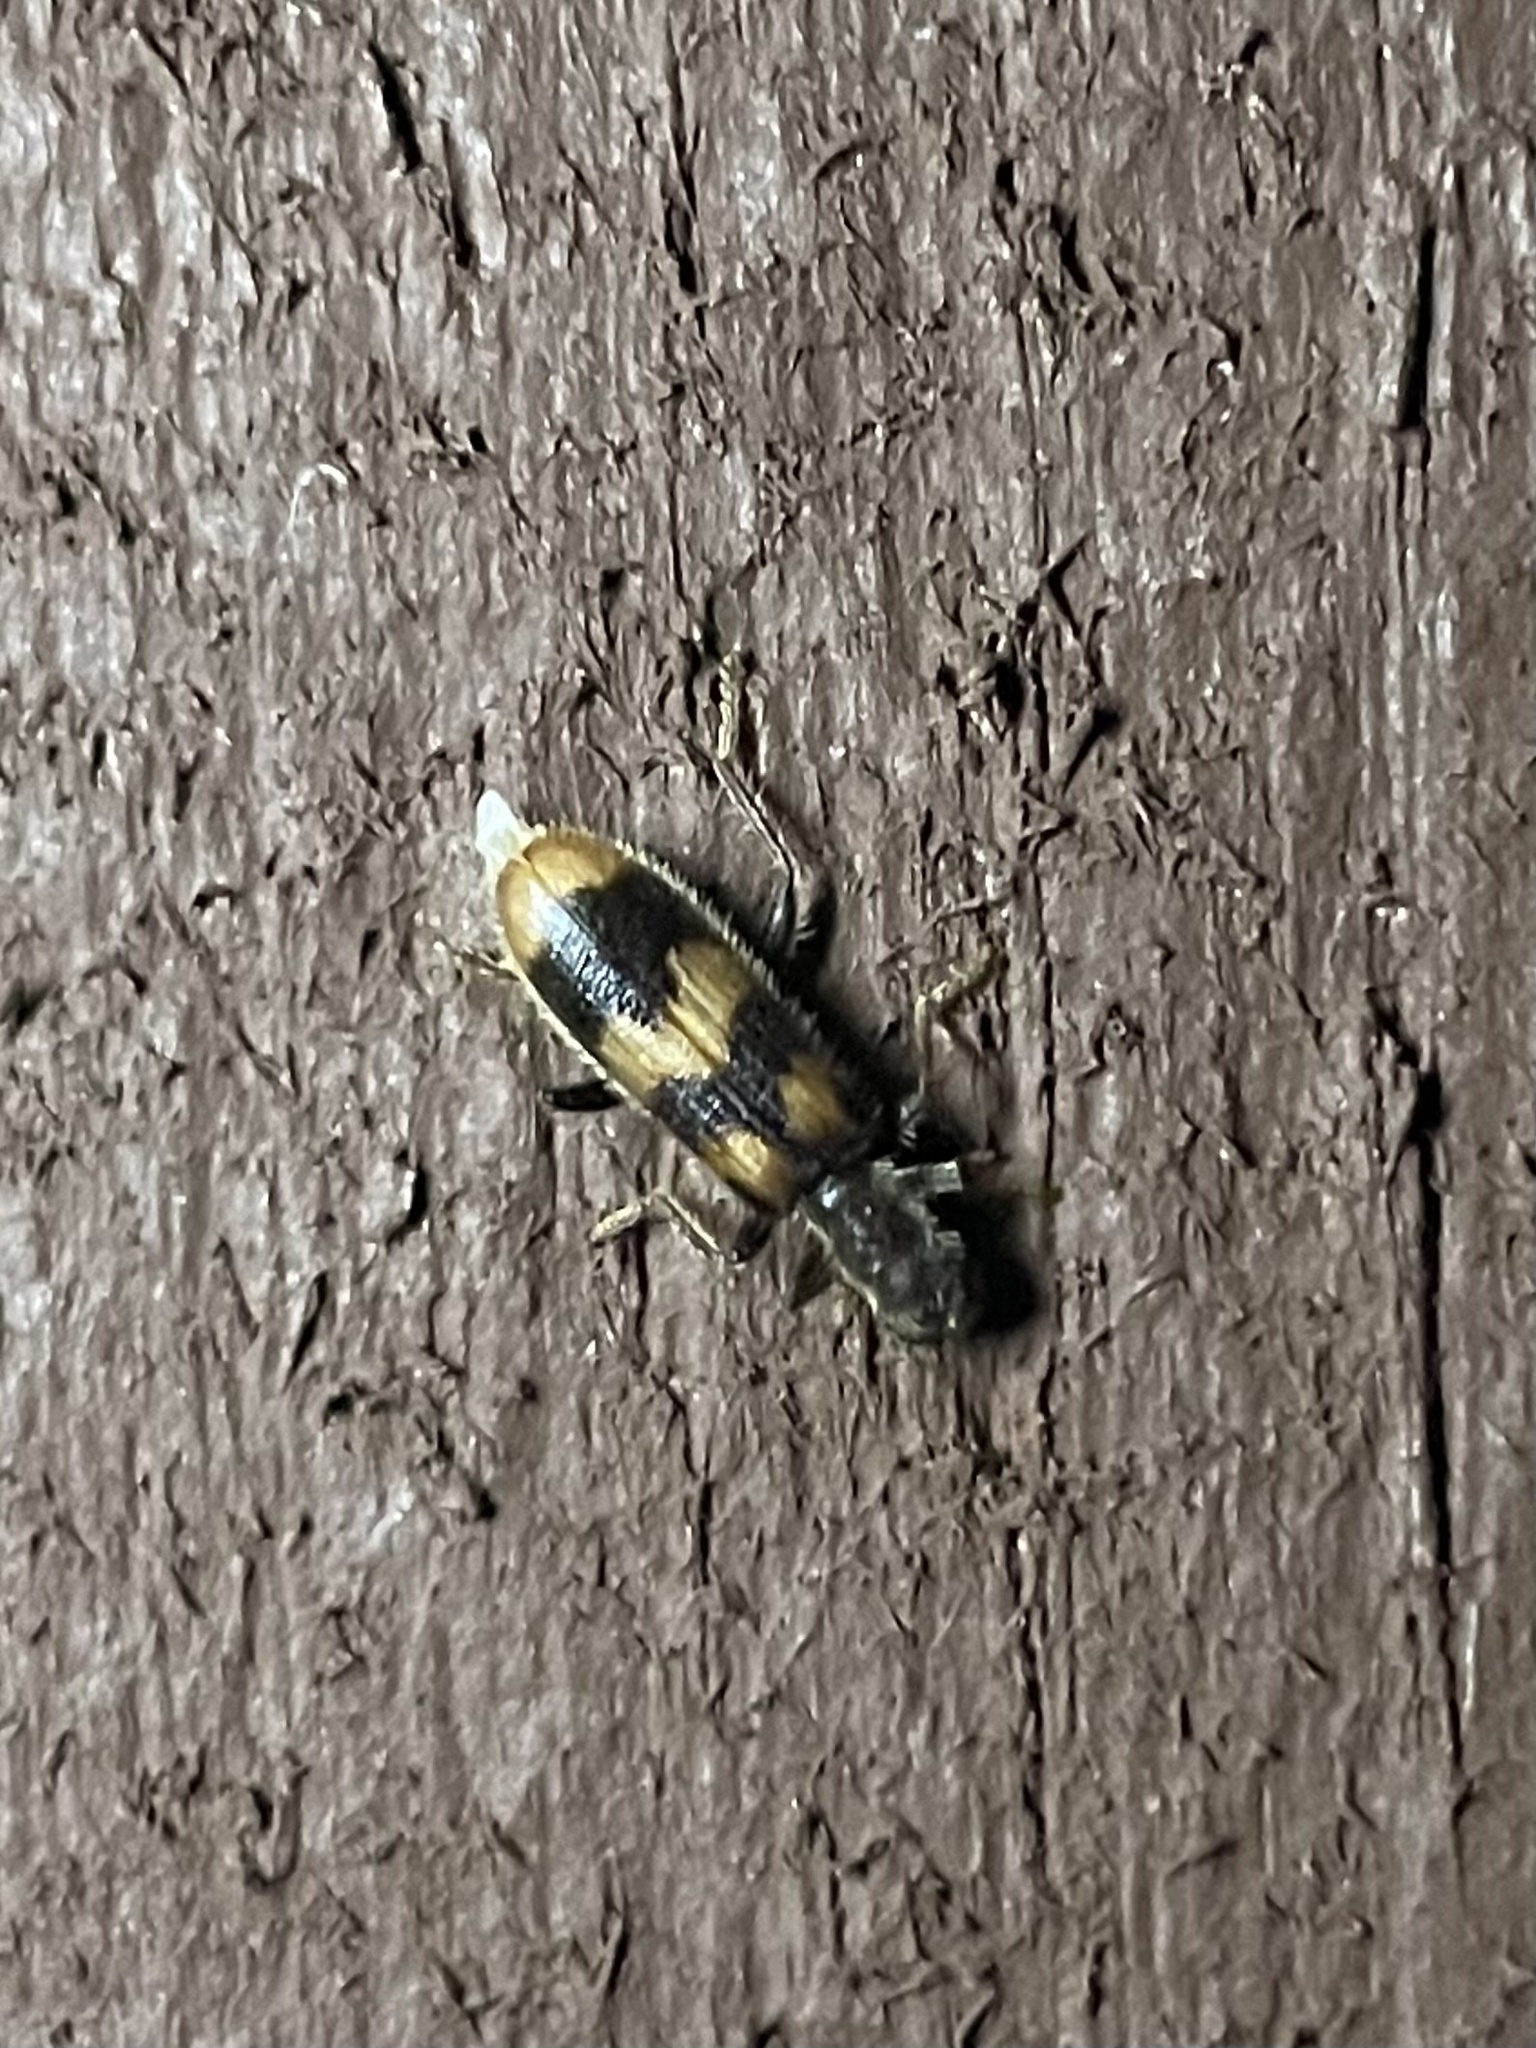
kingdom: Animalia
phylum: Arthropoda
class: Insecta
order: Coleoptera
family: Cleridae
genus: Cymatodera
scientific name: Cymatodera sirpata
